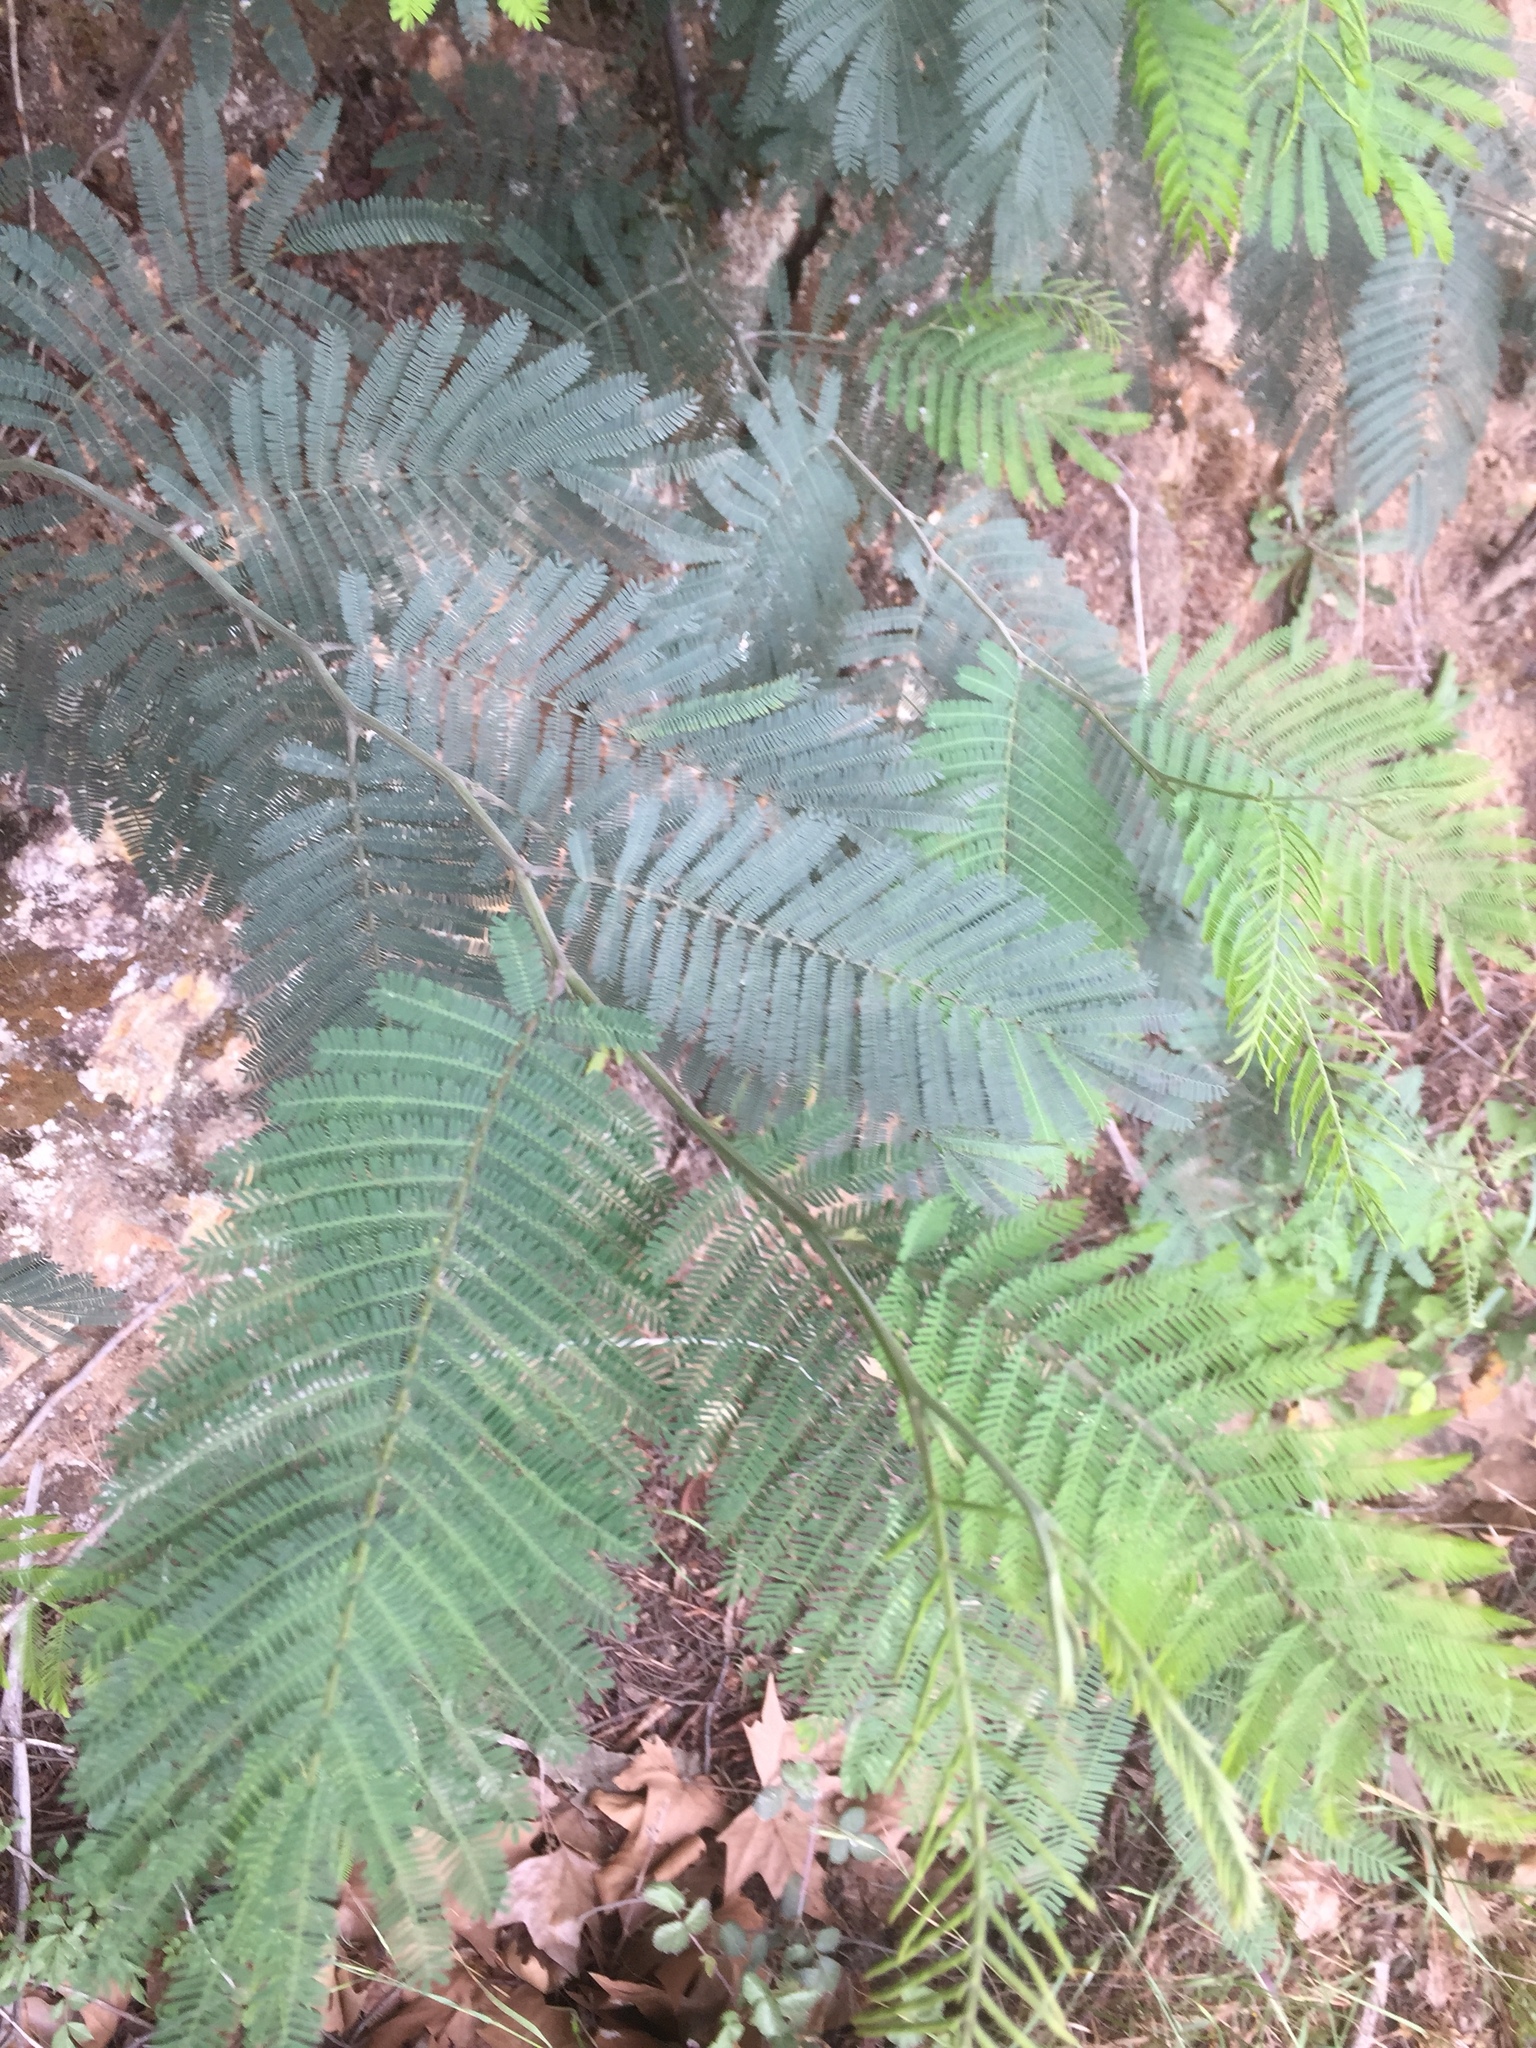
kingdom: Plantae
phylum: Tracheophyta
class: Magnoliopsida
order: Fabales
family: Fabaceae
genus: Acacia
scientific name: Acacia dealbata
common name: Silver wattle
